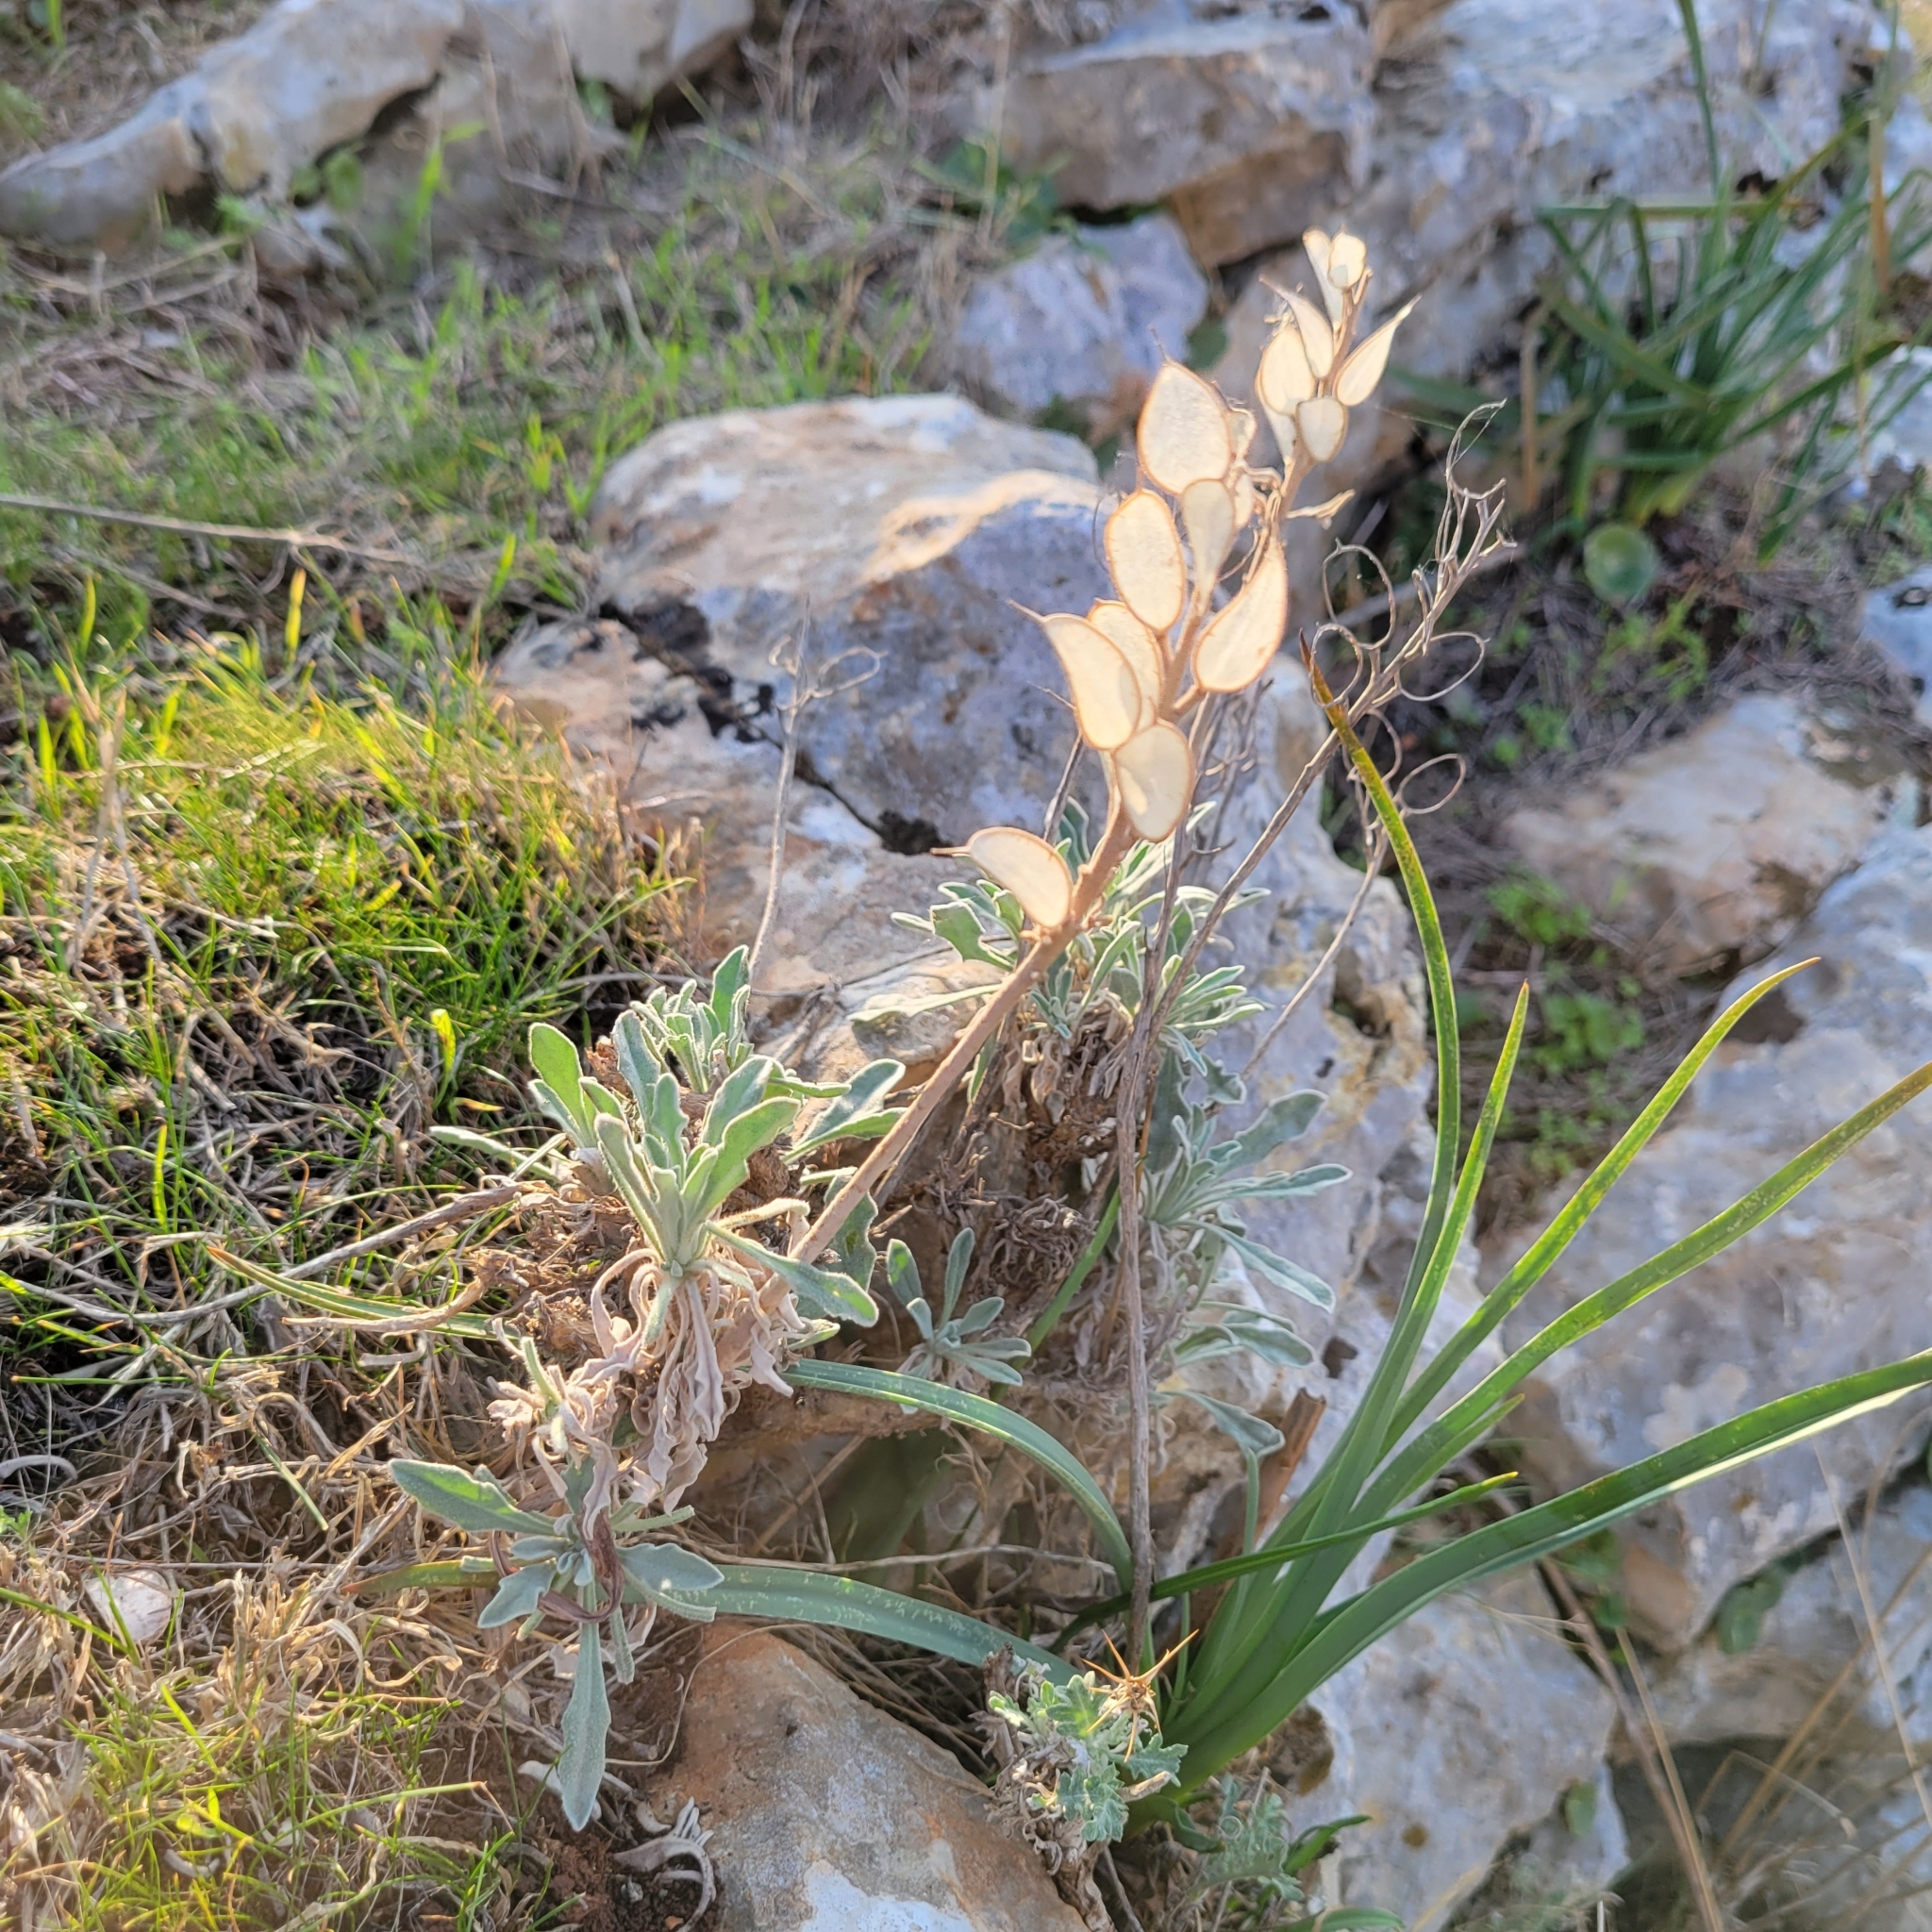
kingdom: Plantae
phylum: Tracheophyta
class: Magnoliopsida
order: Brassicales
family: Brassicaceae
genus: Fibigia
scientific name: Fibigia clypeata
